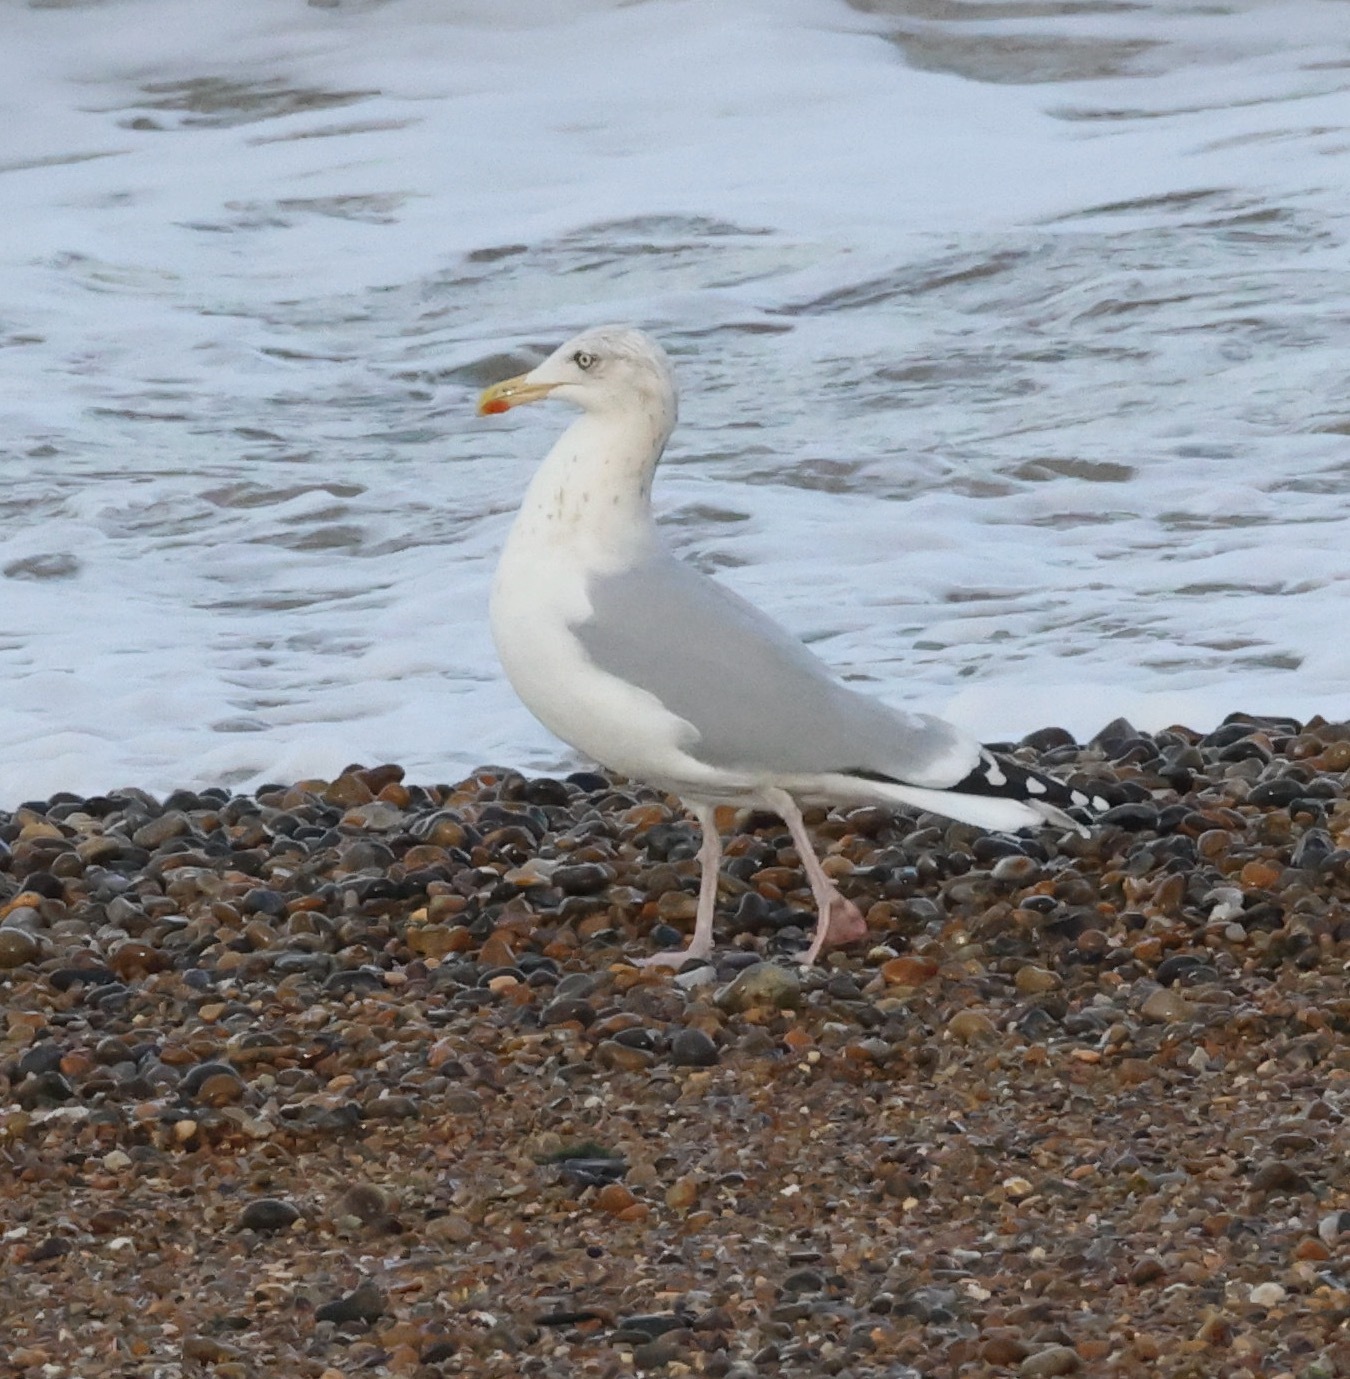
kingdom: Animalia
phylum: Chordata
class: Aves
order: Charadriiformes
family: Laridae
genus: Larus
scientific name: Larus argentatus
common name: Herring gull
